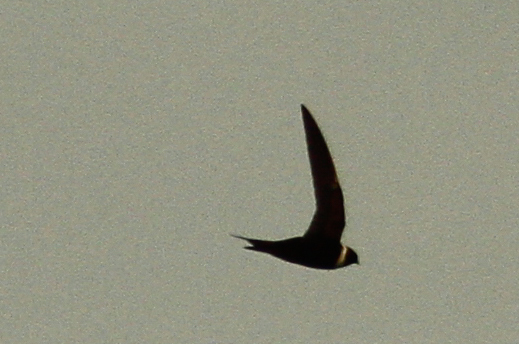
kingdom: Animalia
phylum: Chordata
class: Aves
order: Apodiformes
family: Apodidae
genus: Streptoprocne
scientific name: Streptoprocne zonaris
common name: White-collared swift
